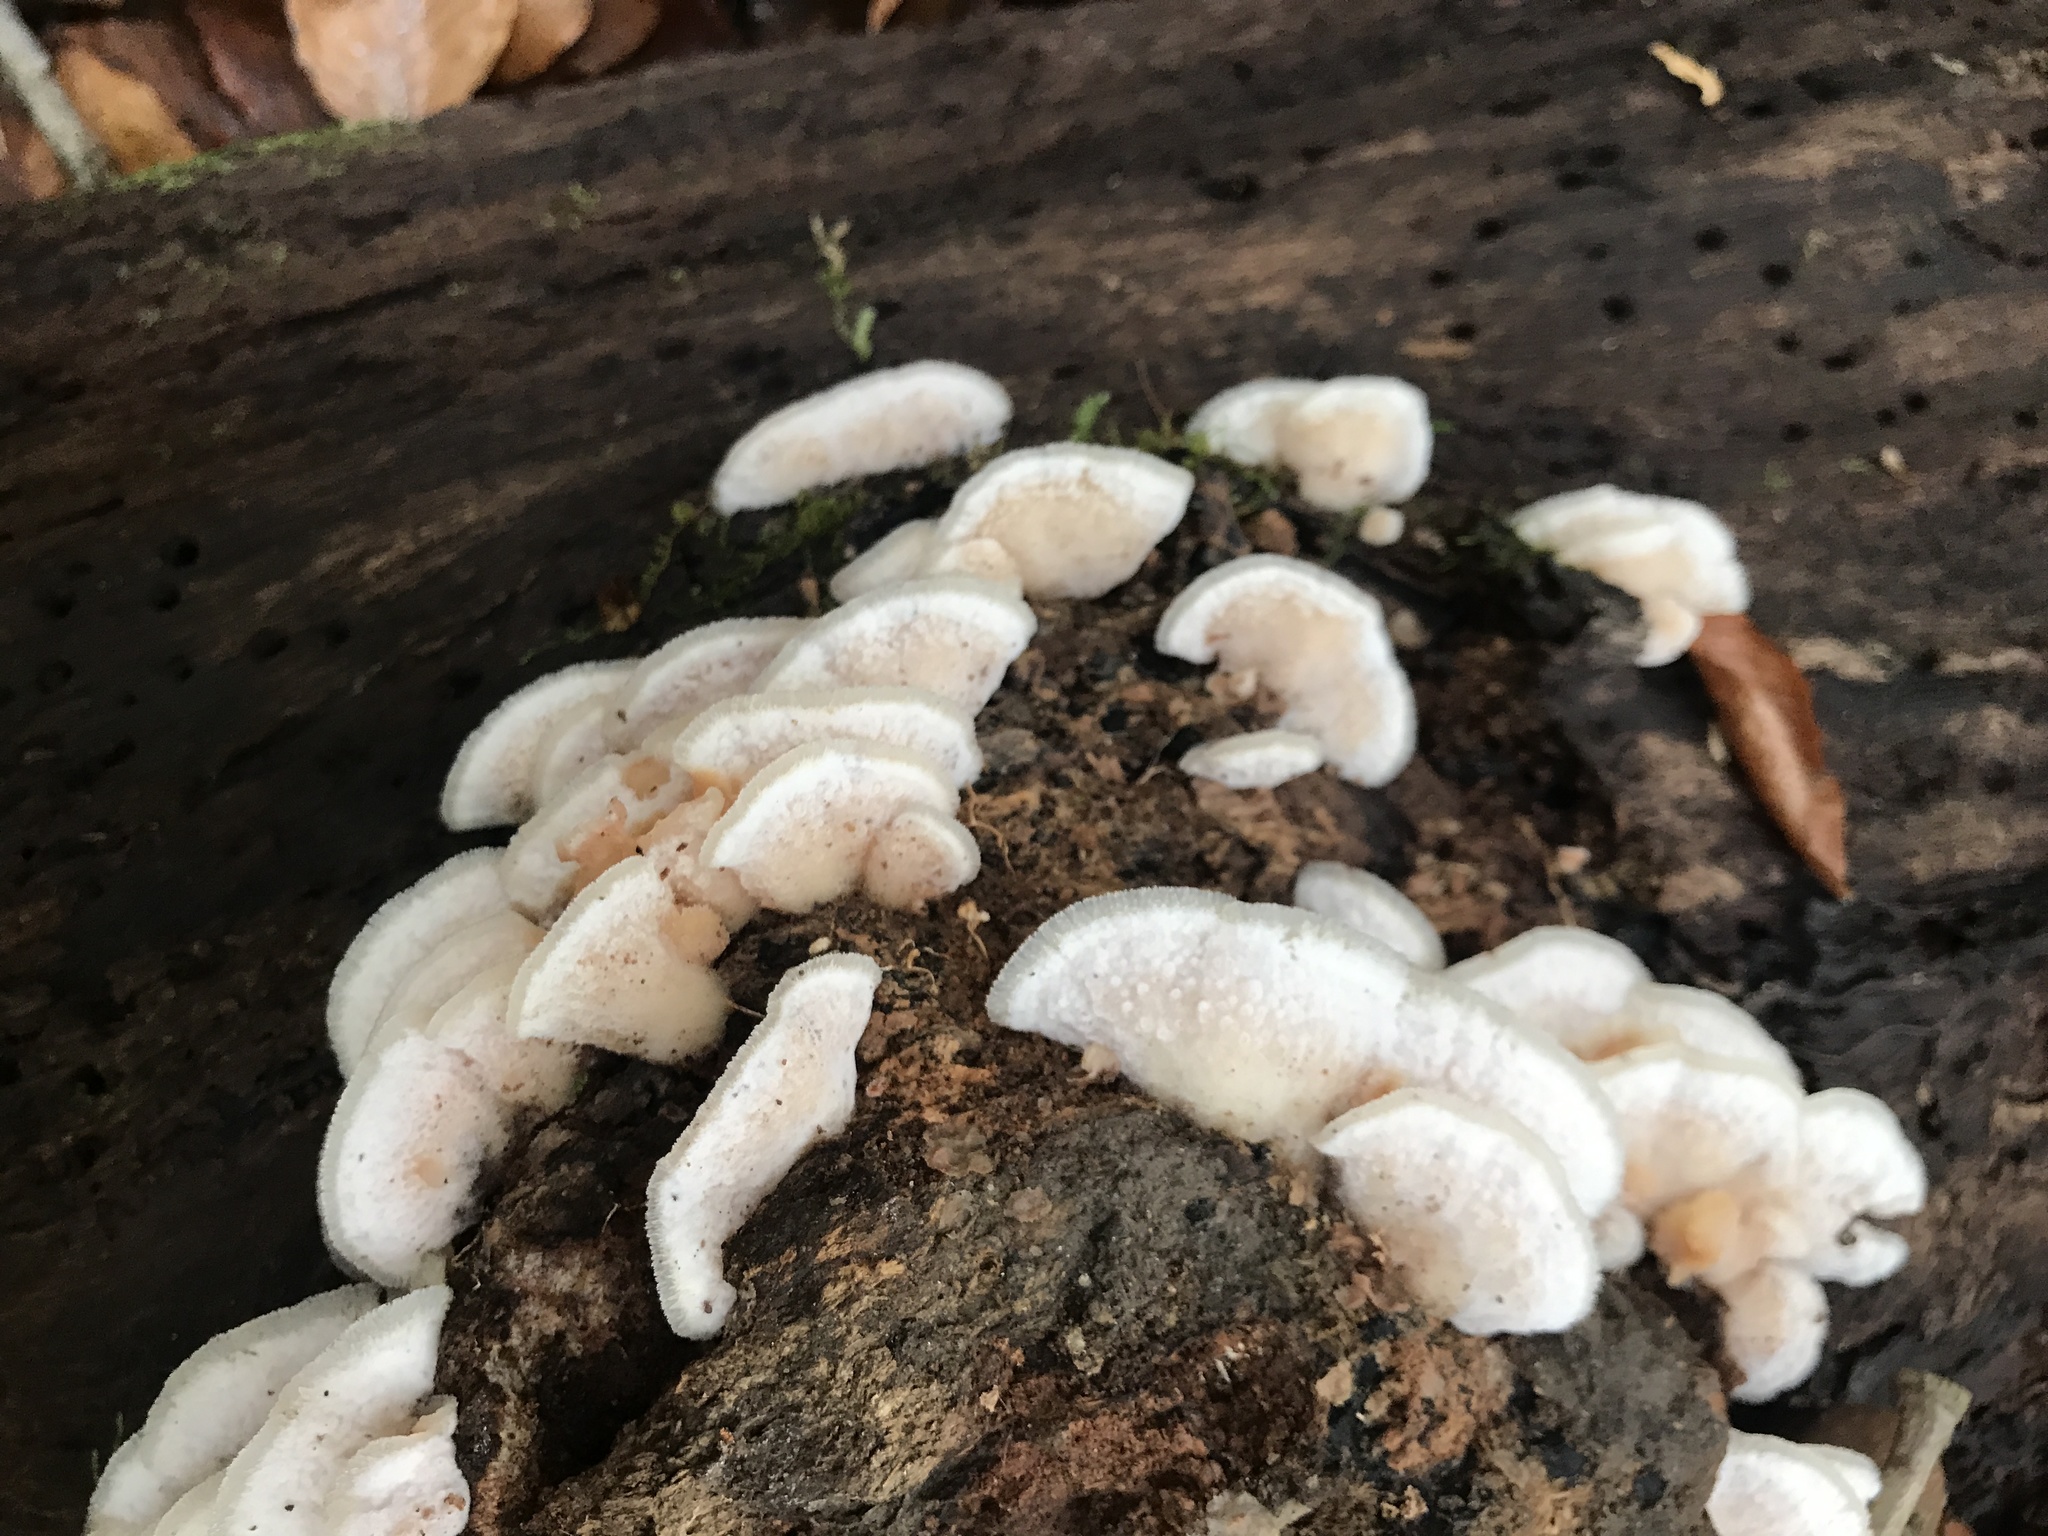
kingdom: Fungi
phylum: Basidiomycota
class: Agaricomycetes
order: Polyporales
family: Meruliaceae
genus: Phlebia
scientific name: Phlebia tremellosa
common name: Jelly rot
